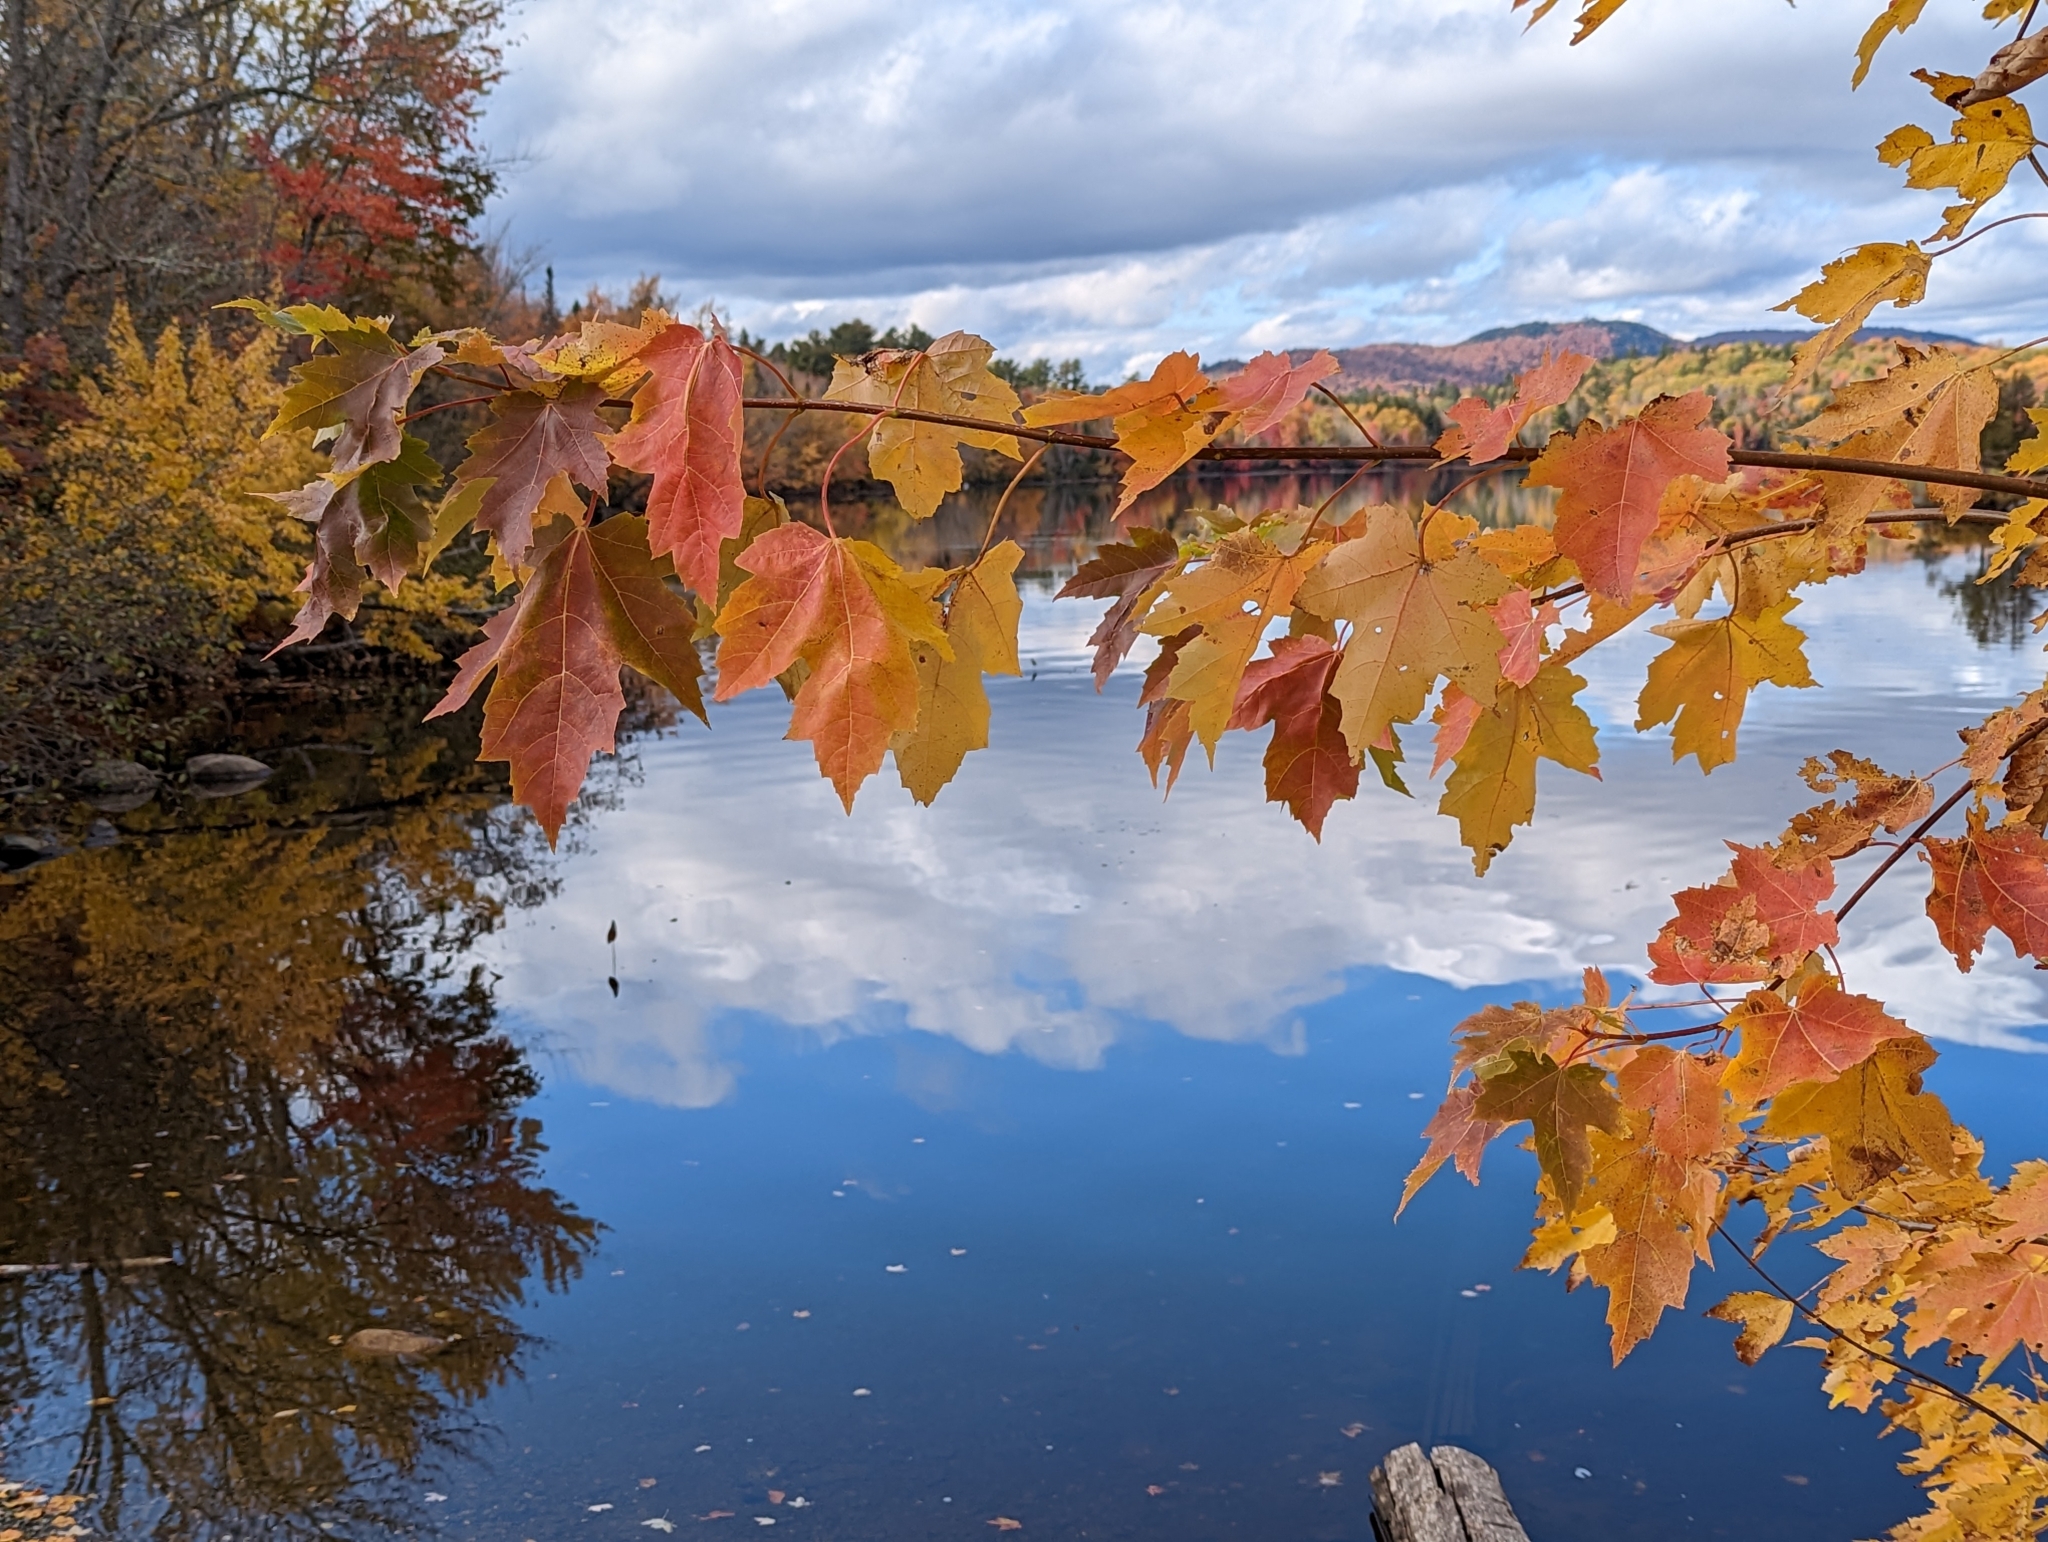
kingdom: Plantae
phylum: Tracheophyta
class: Magnoliopsida
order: Sapindales
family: Sapindaceae
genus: Acer
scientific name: Acer rubrum
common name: Red maple
